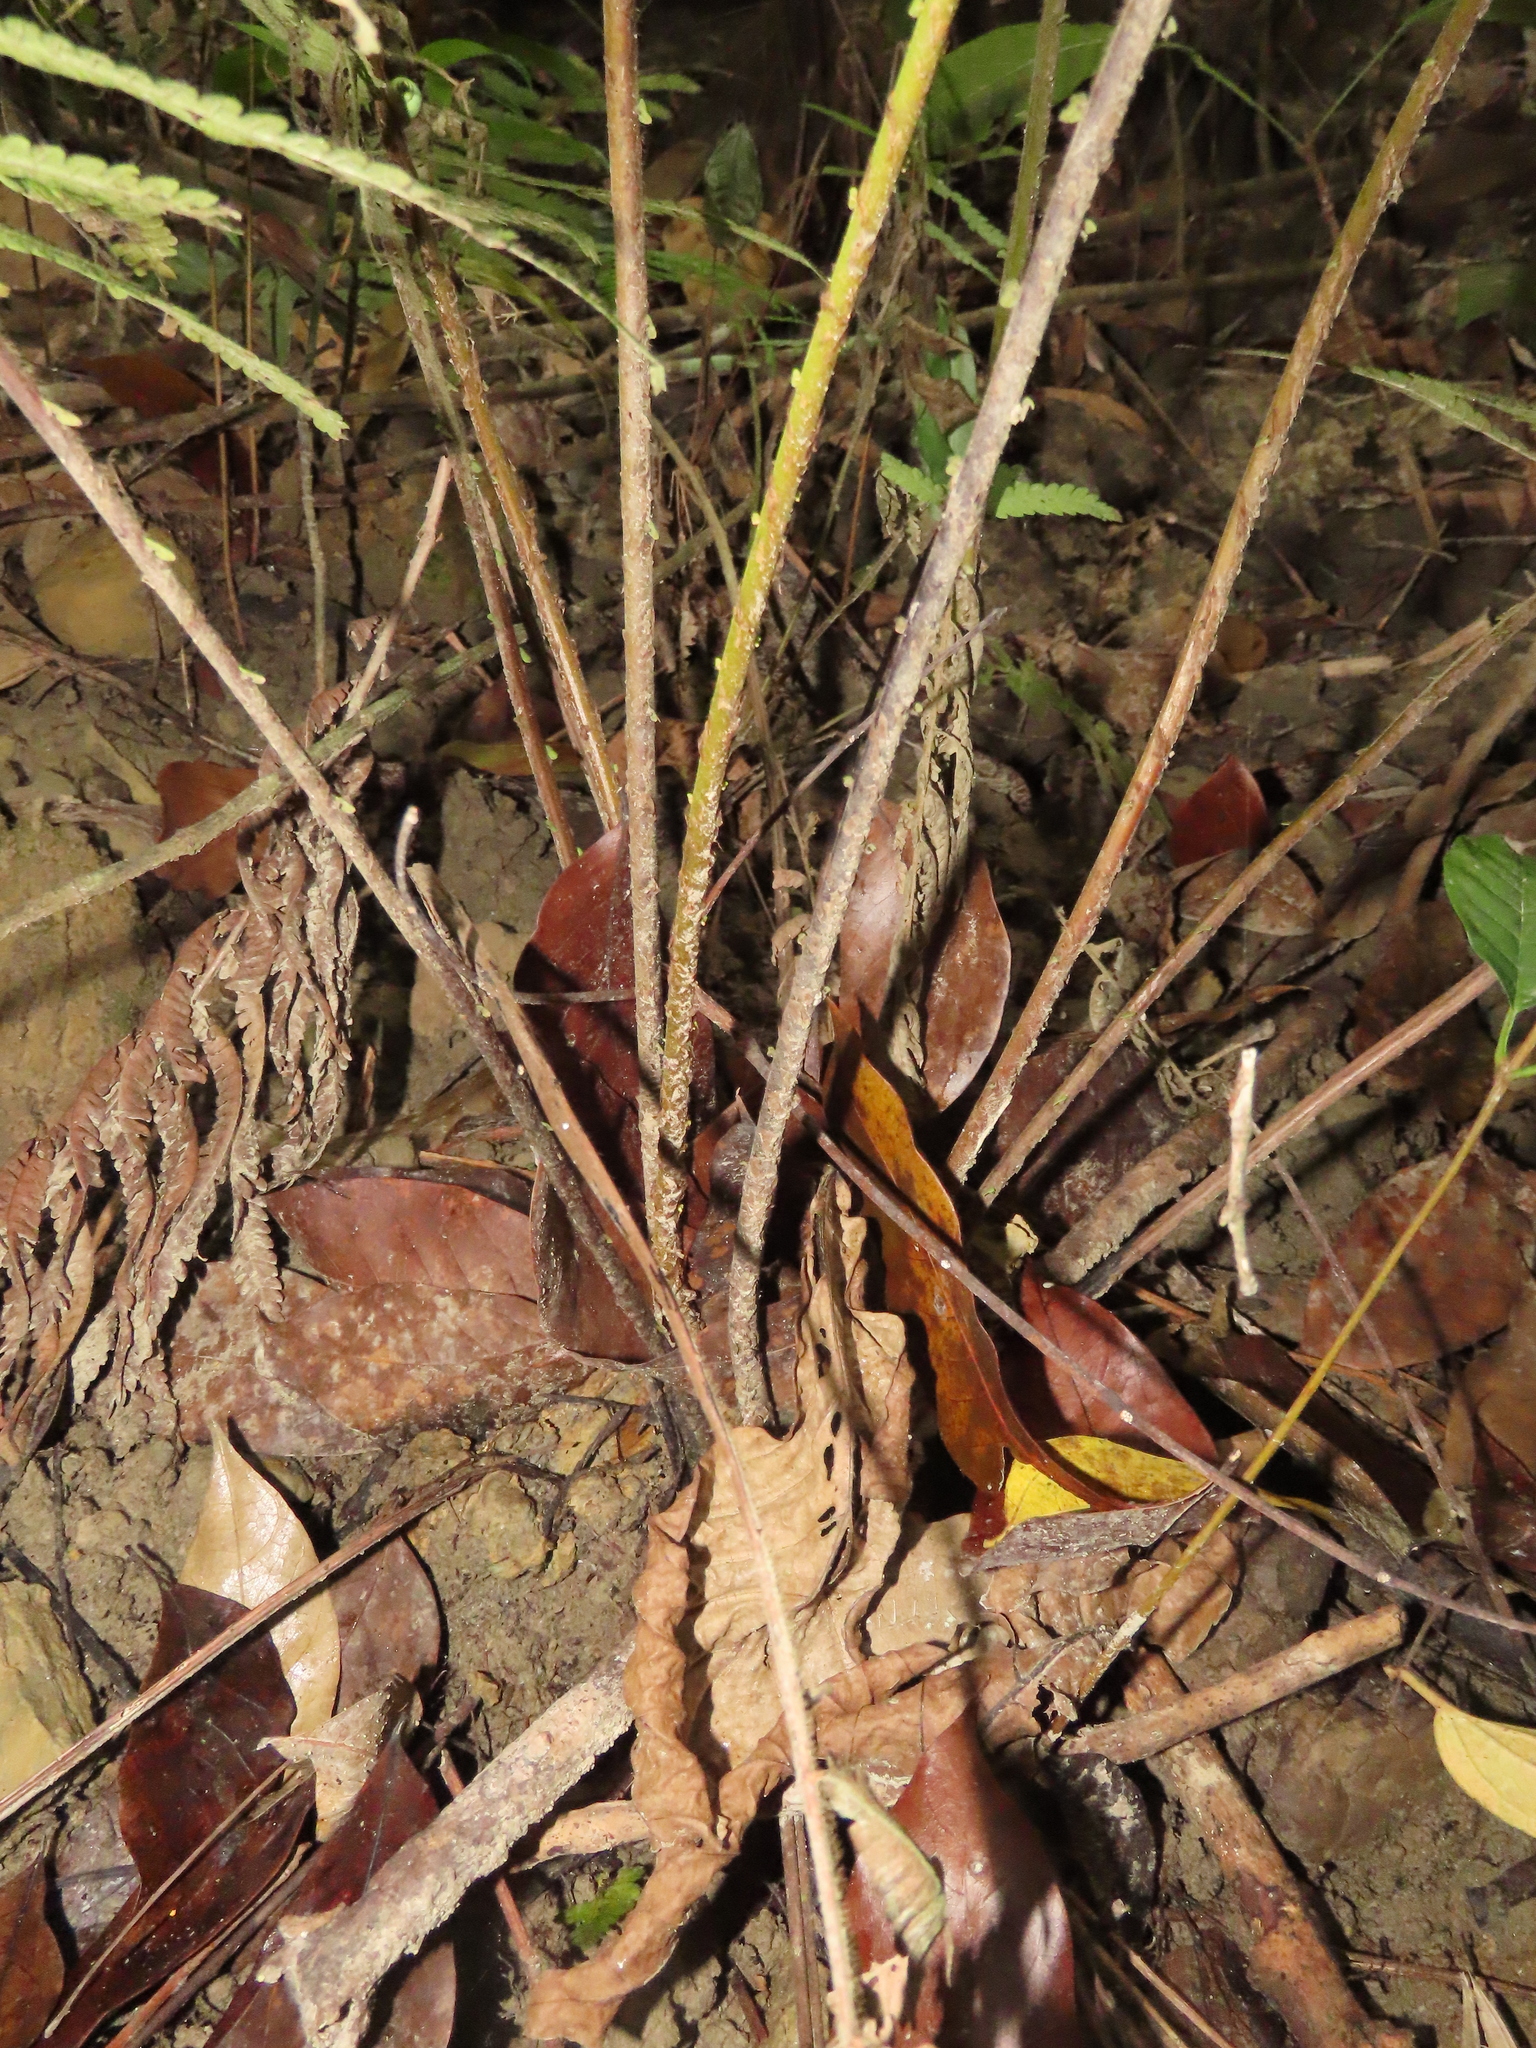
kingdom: Plantae
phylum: Tracheophyta
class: Polypodiopsida
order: Polypodiales
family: Thelypteridaceae
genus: Sphaerostephanos
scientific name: Sphaerostephanos taiwanensis
